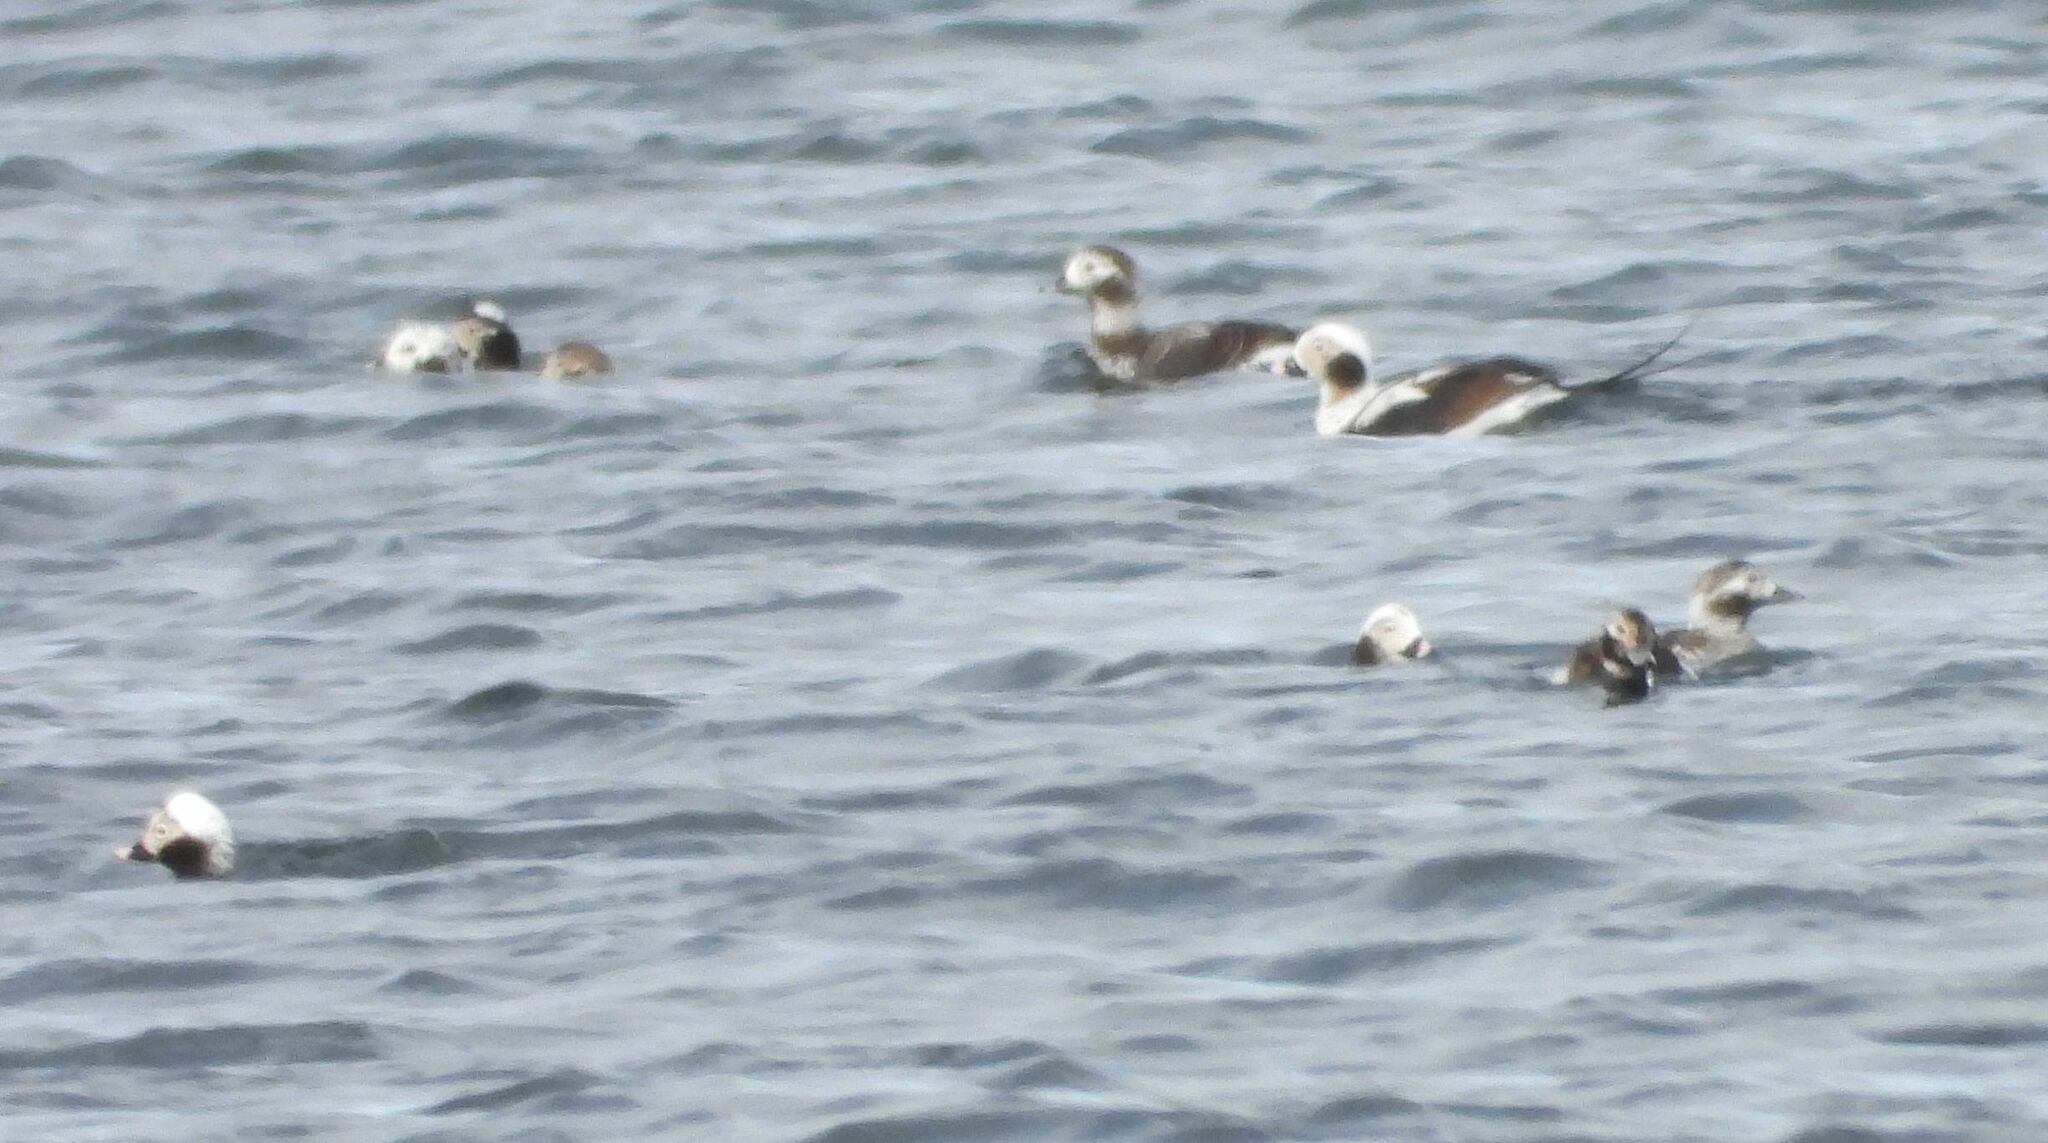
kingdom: Animalia
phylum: Chordata
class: Aves
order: Anseriformes
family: Anatidae
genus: Clangula
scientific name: Clangula hyemalis
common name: Long-tailed duck
